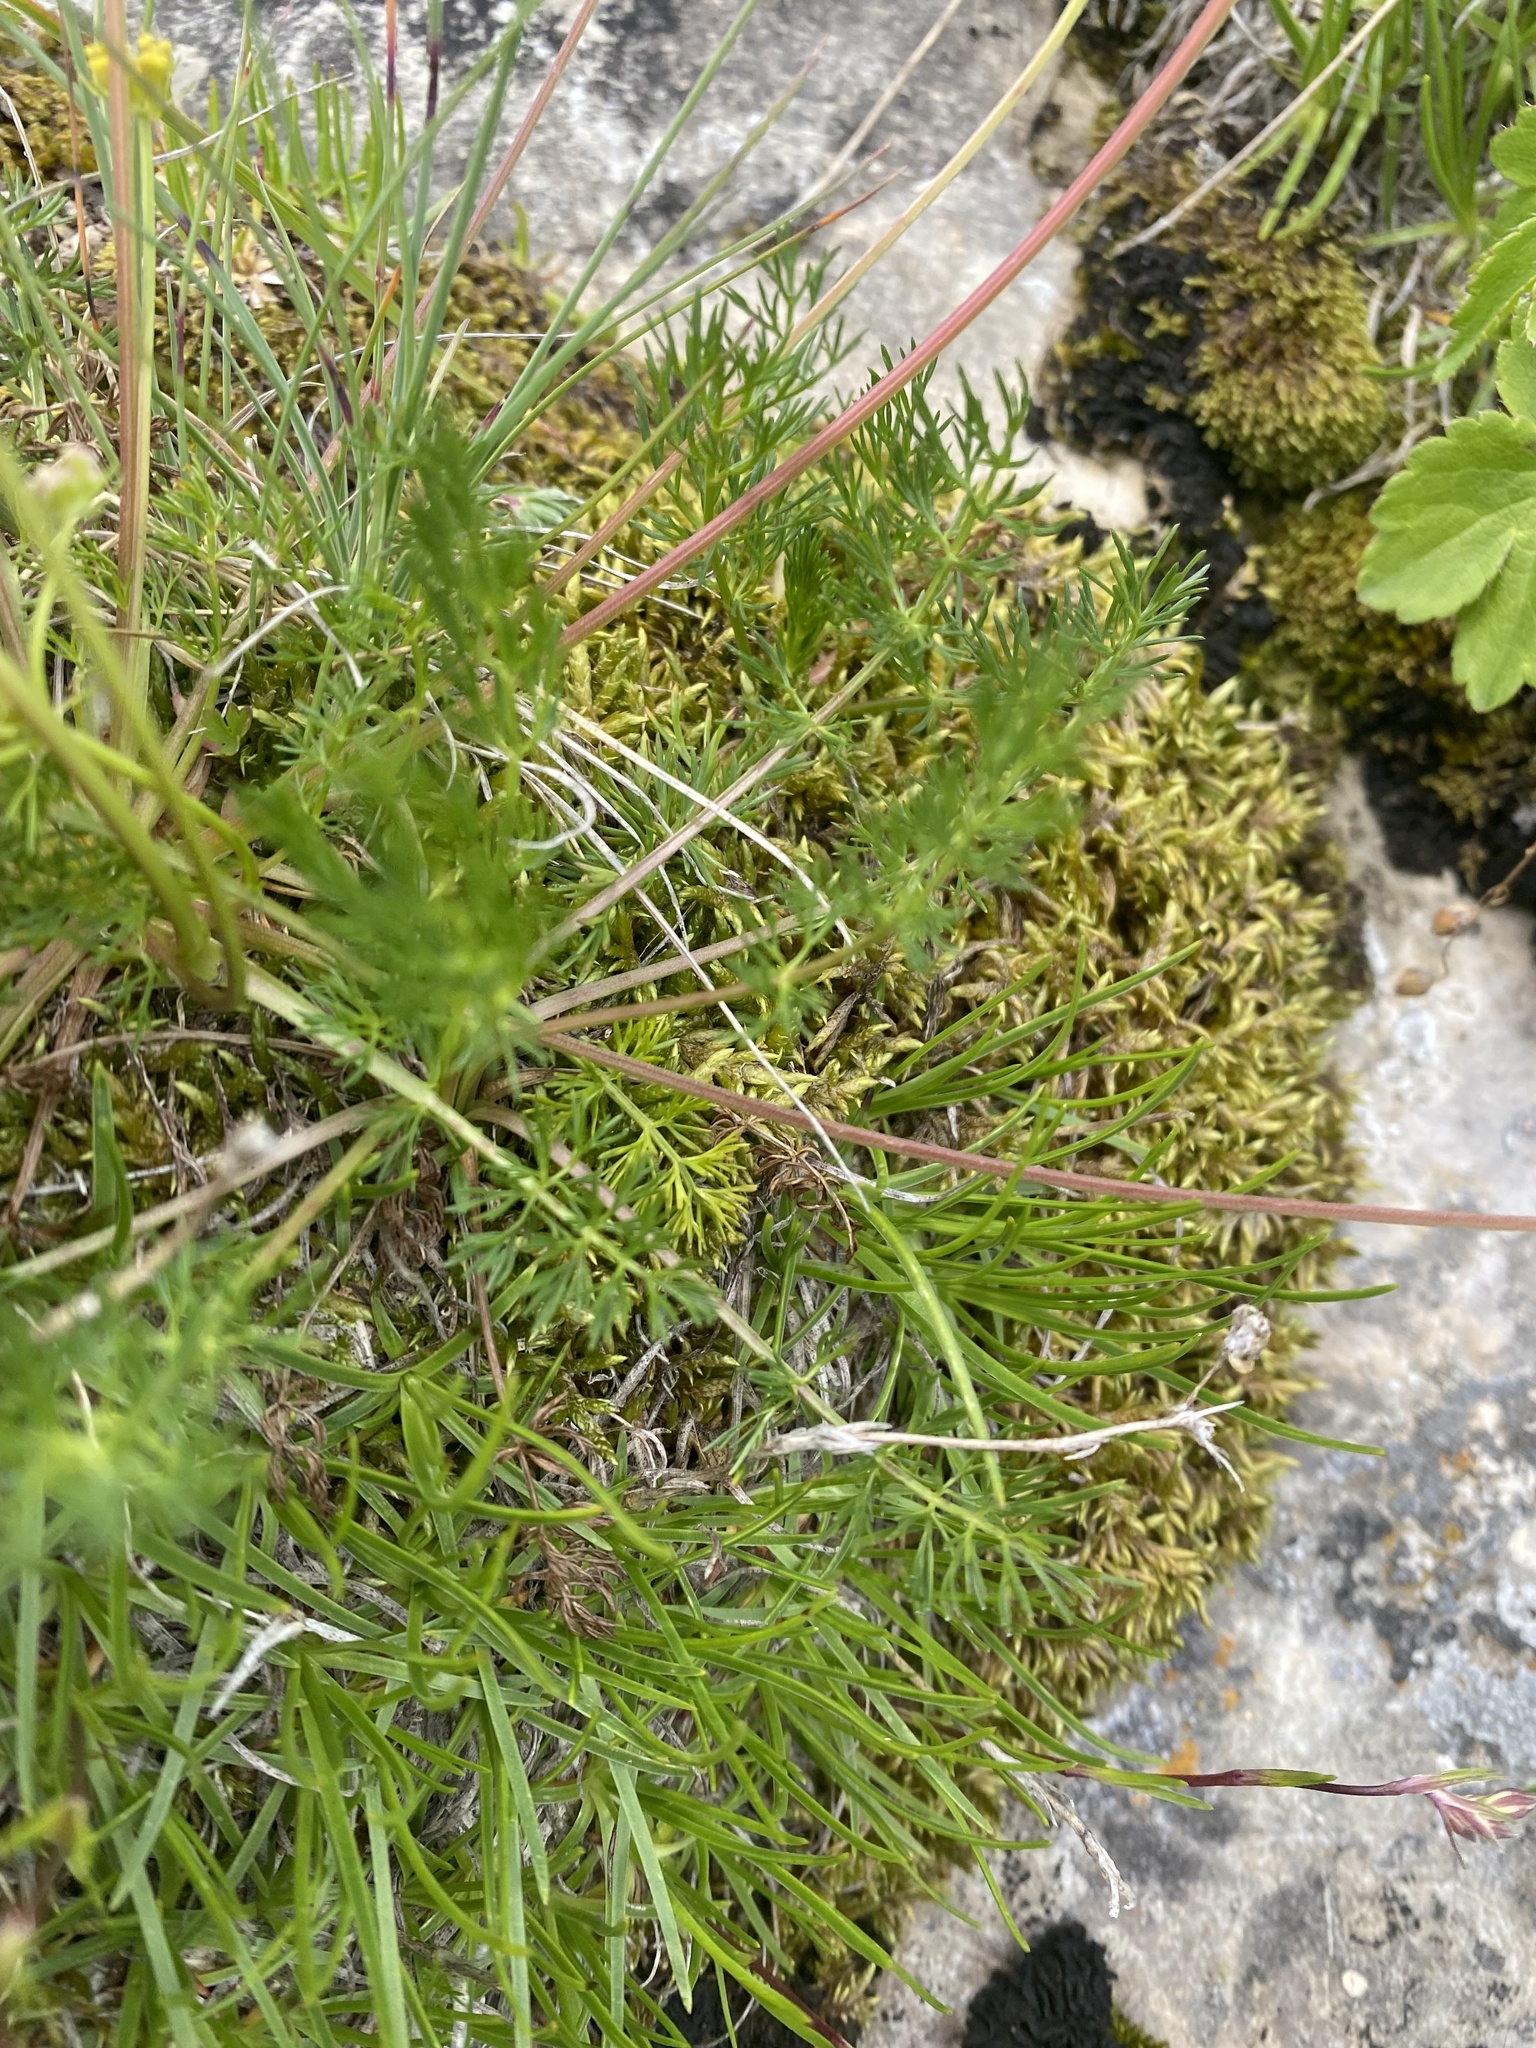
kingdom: Plantae
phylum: Tracheophyta
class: Magnoliopsida
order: Apiales
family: Apiaceae
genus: Chamaesciadium
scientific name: Chamaesciadium acaule
